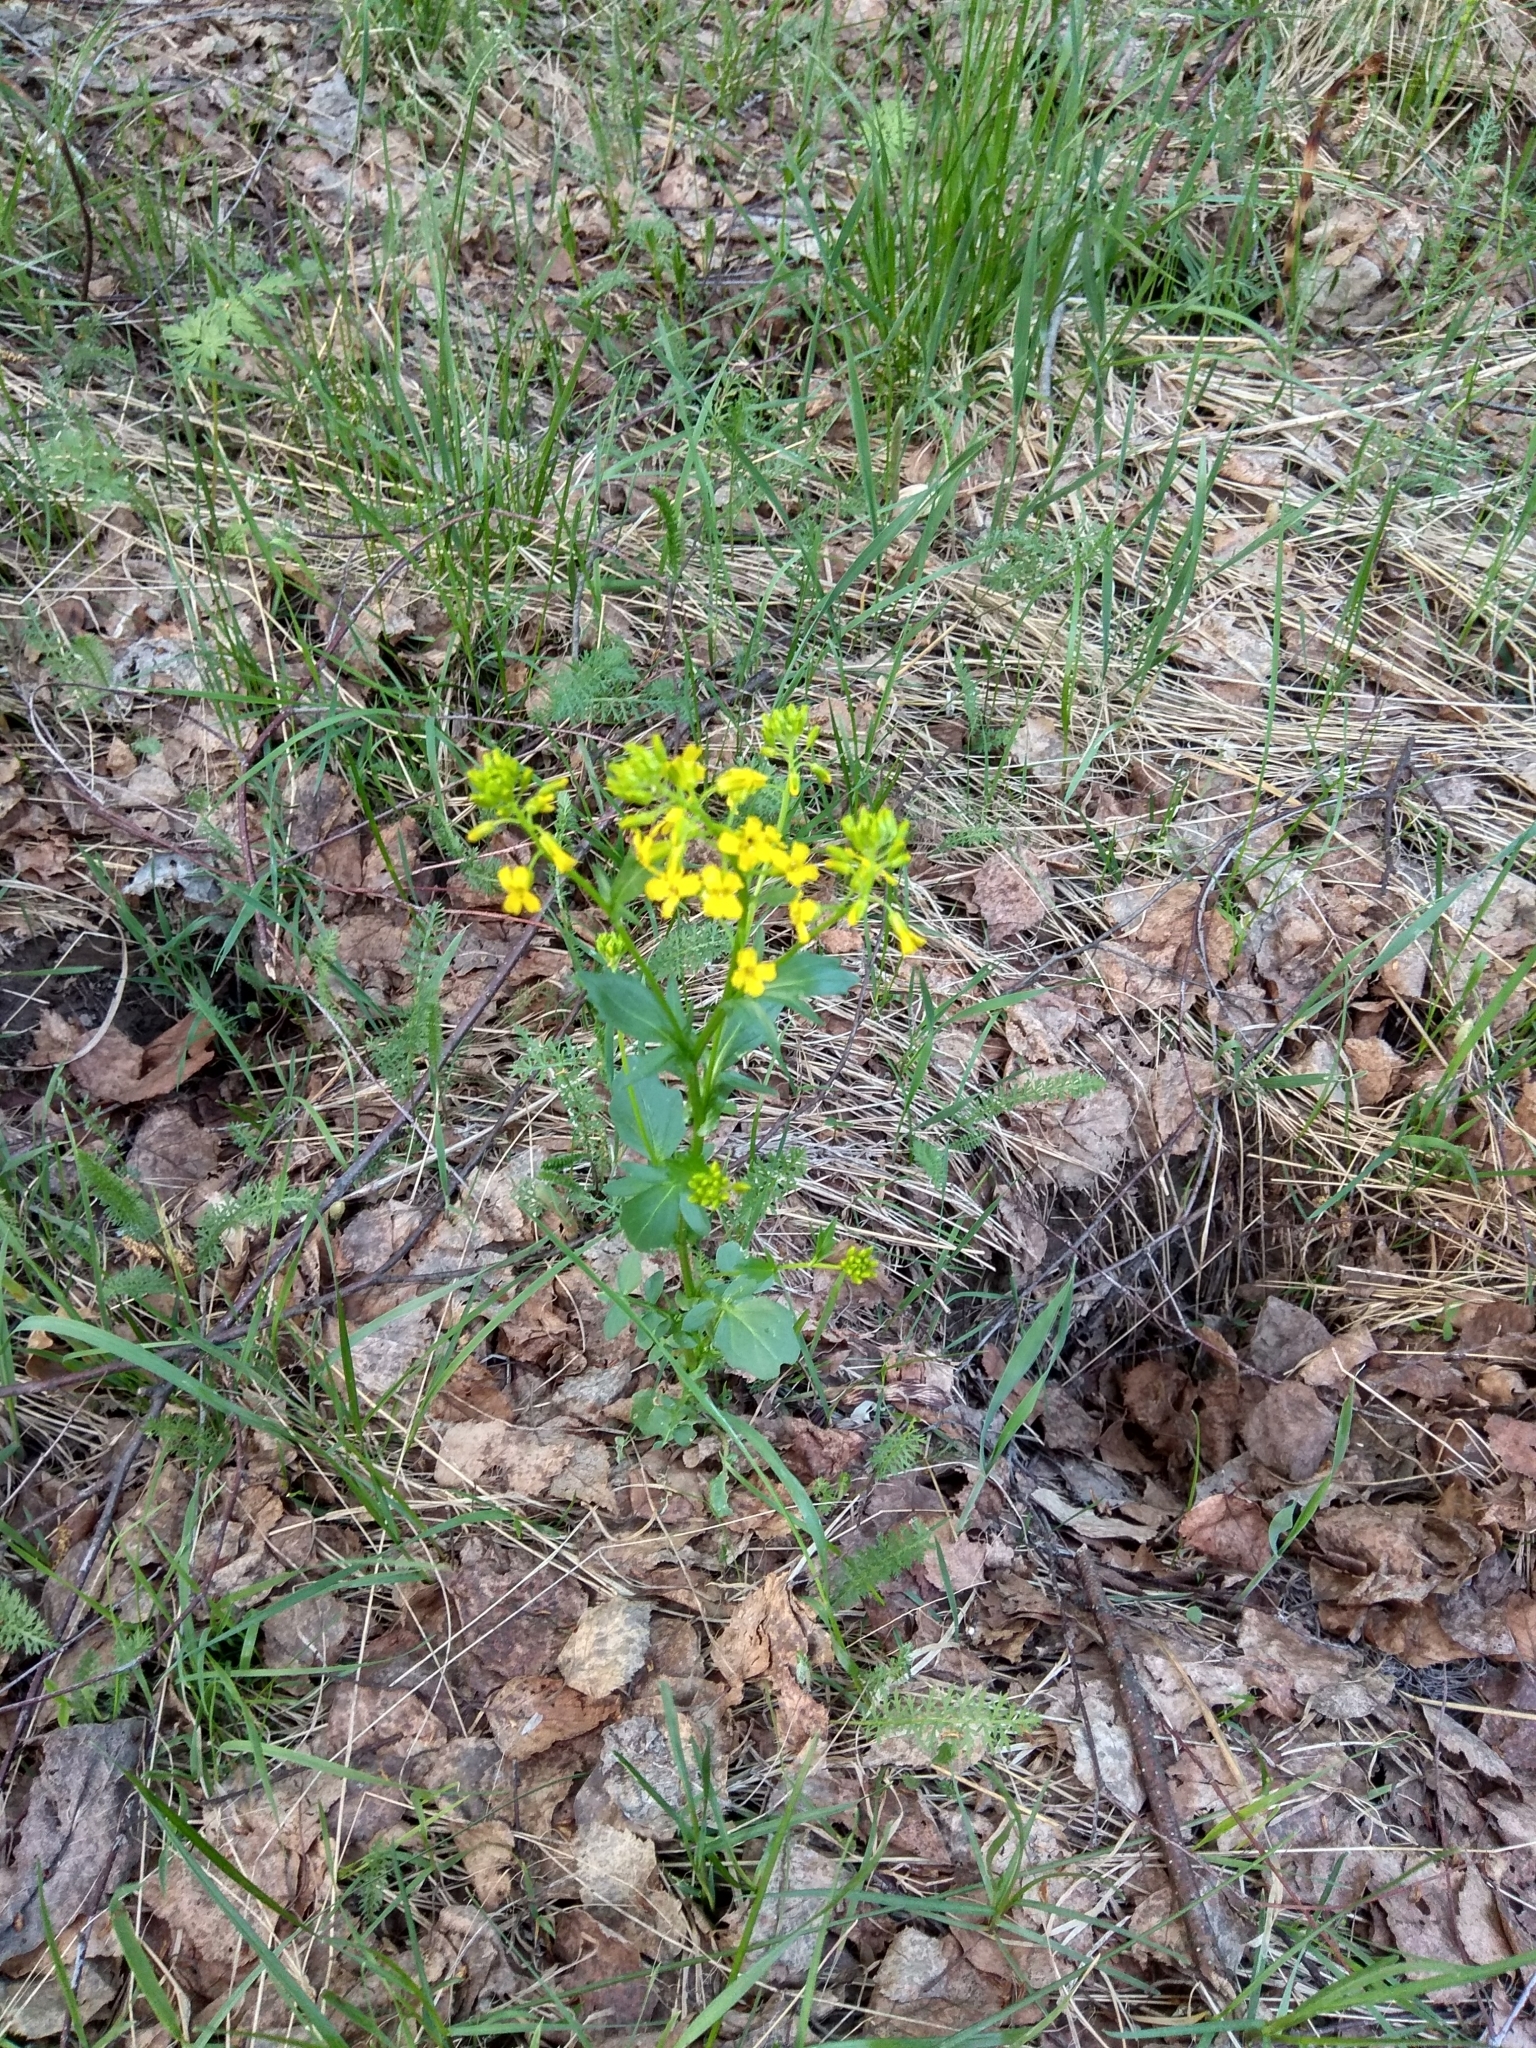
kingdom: Plantae
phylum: Tracheophyta
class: Magnoliopsida
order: Brassicales
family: Brassicaceae
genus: Barbarea
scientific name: Barbarea vulgaris
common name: Cressy-greens
